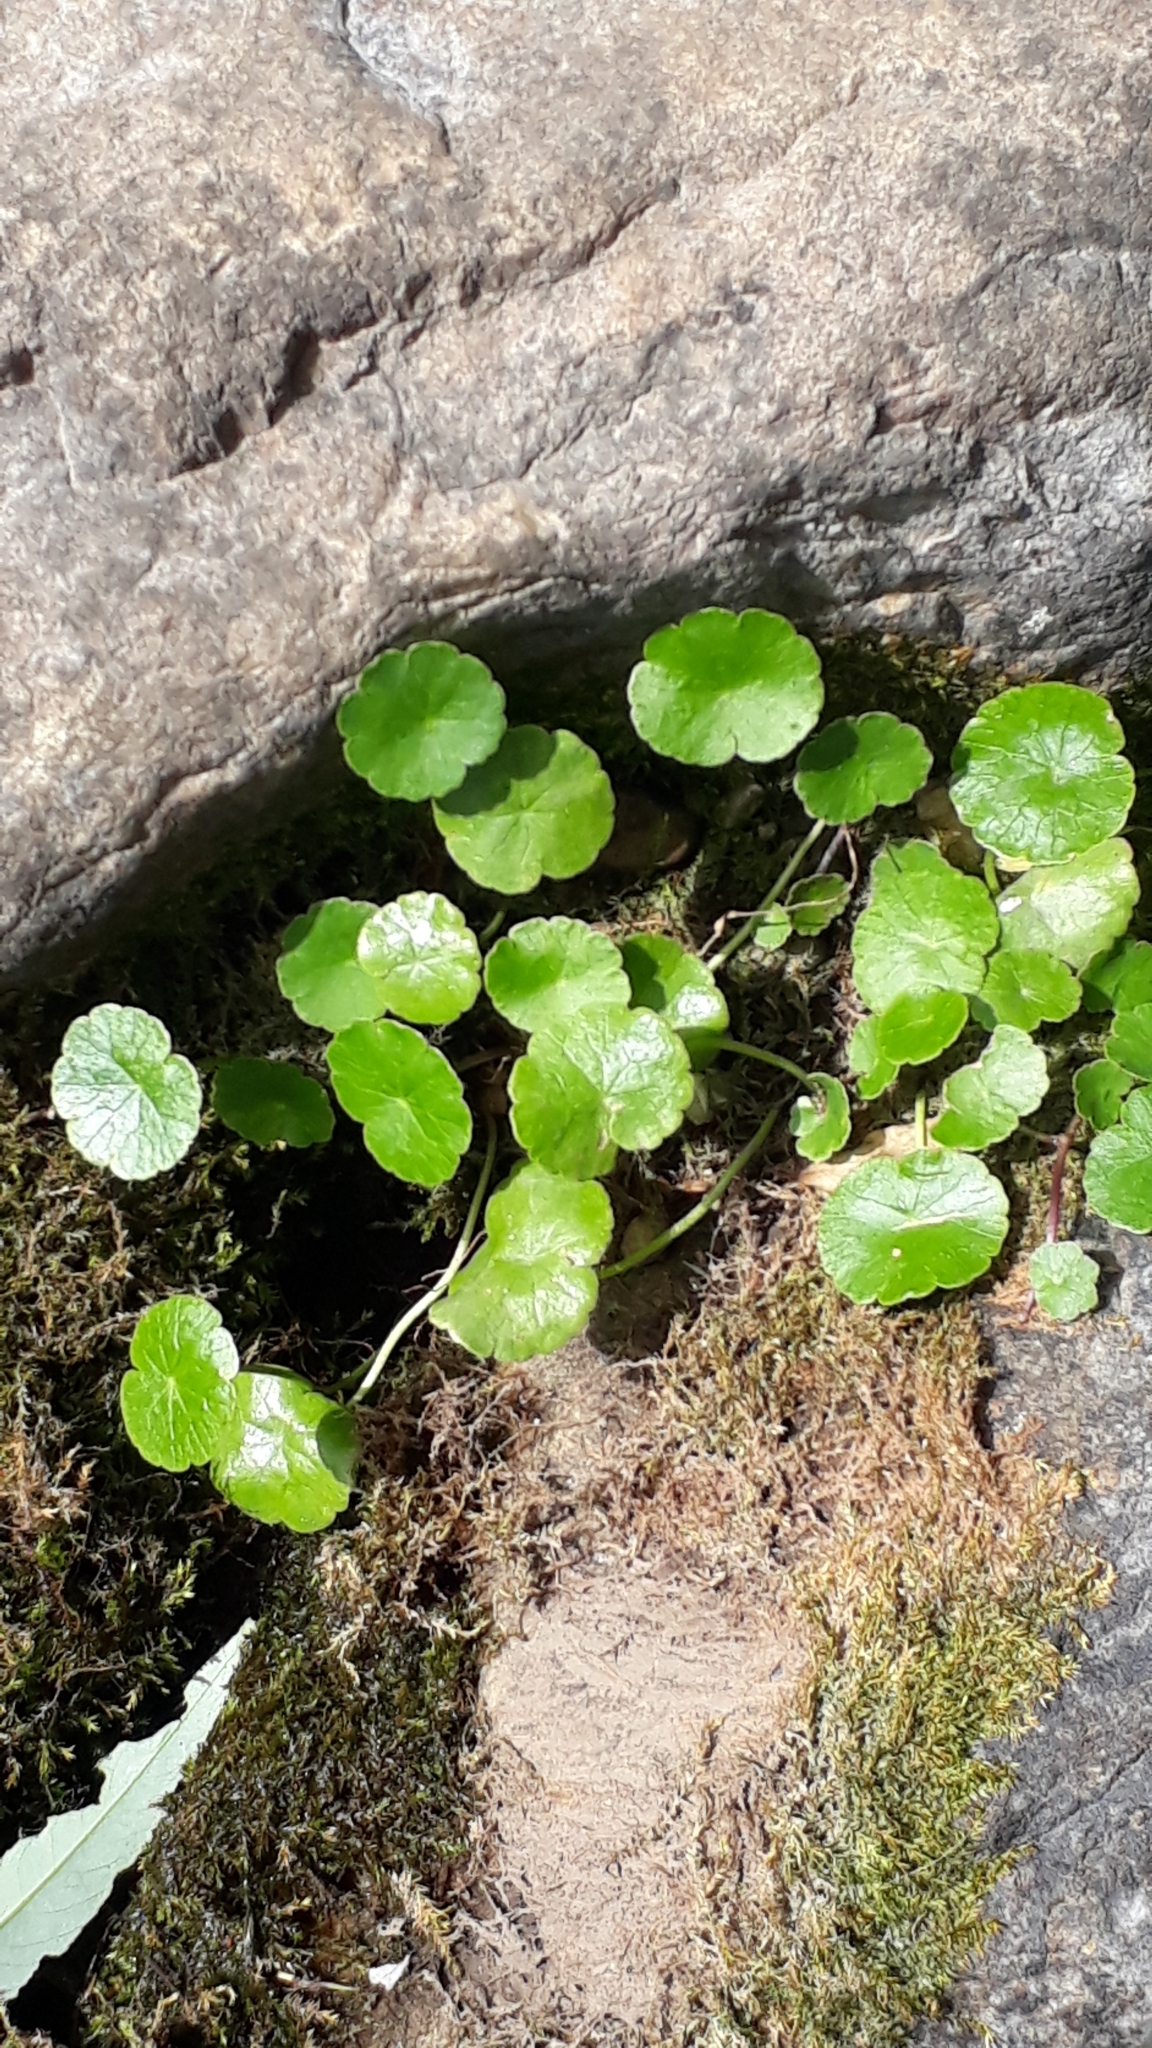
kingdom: Plantae
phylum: Tracheophyta
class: Magnoliopsida
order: Apiales
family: Araliaceae
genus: Hydrocotyle
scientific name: Hydrocotyle bonariensis
